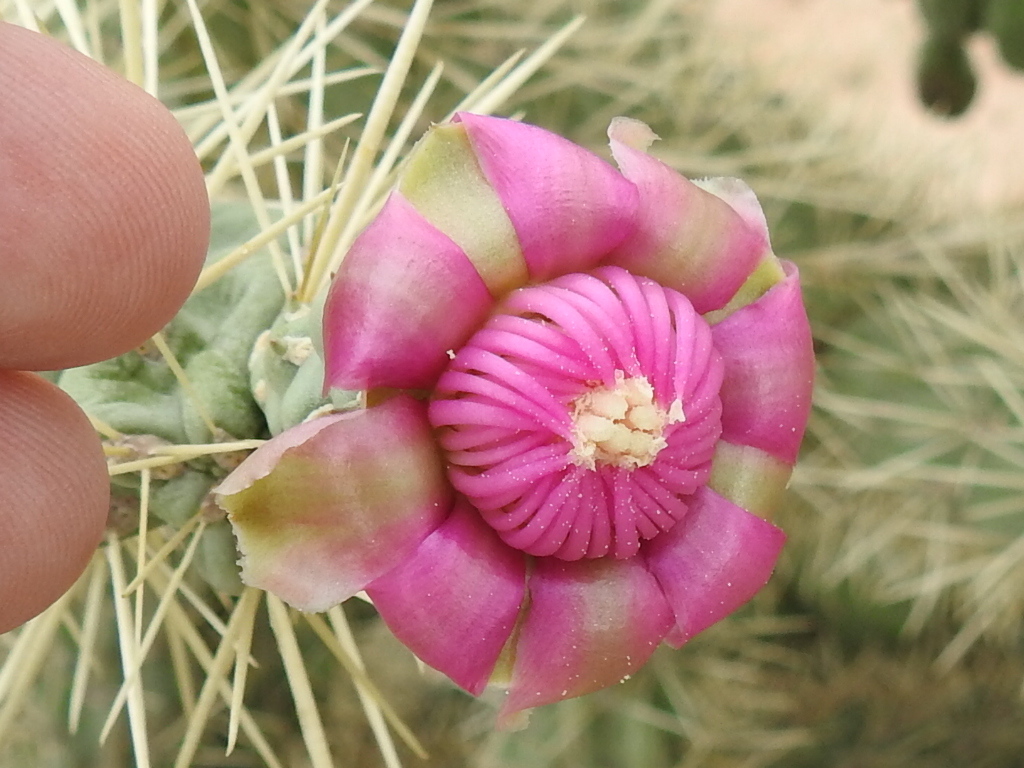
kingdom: Plantae
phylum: Tracheophyta
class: Magnoliopsida
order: Caryophyllales
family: Cactaceae
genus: Cylindropuntia
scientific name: Cylindropuntia fulgida
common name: Jumping cholla
